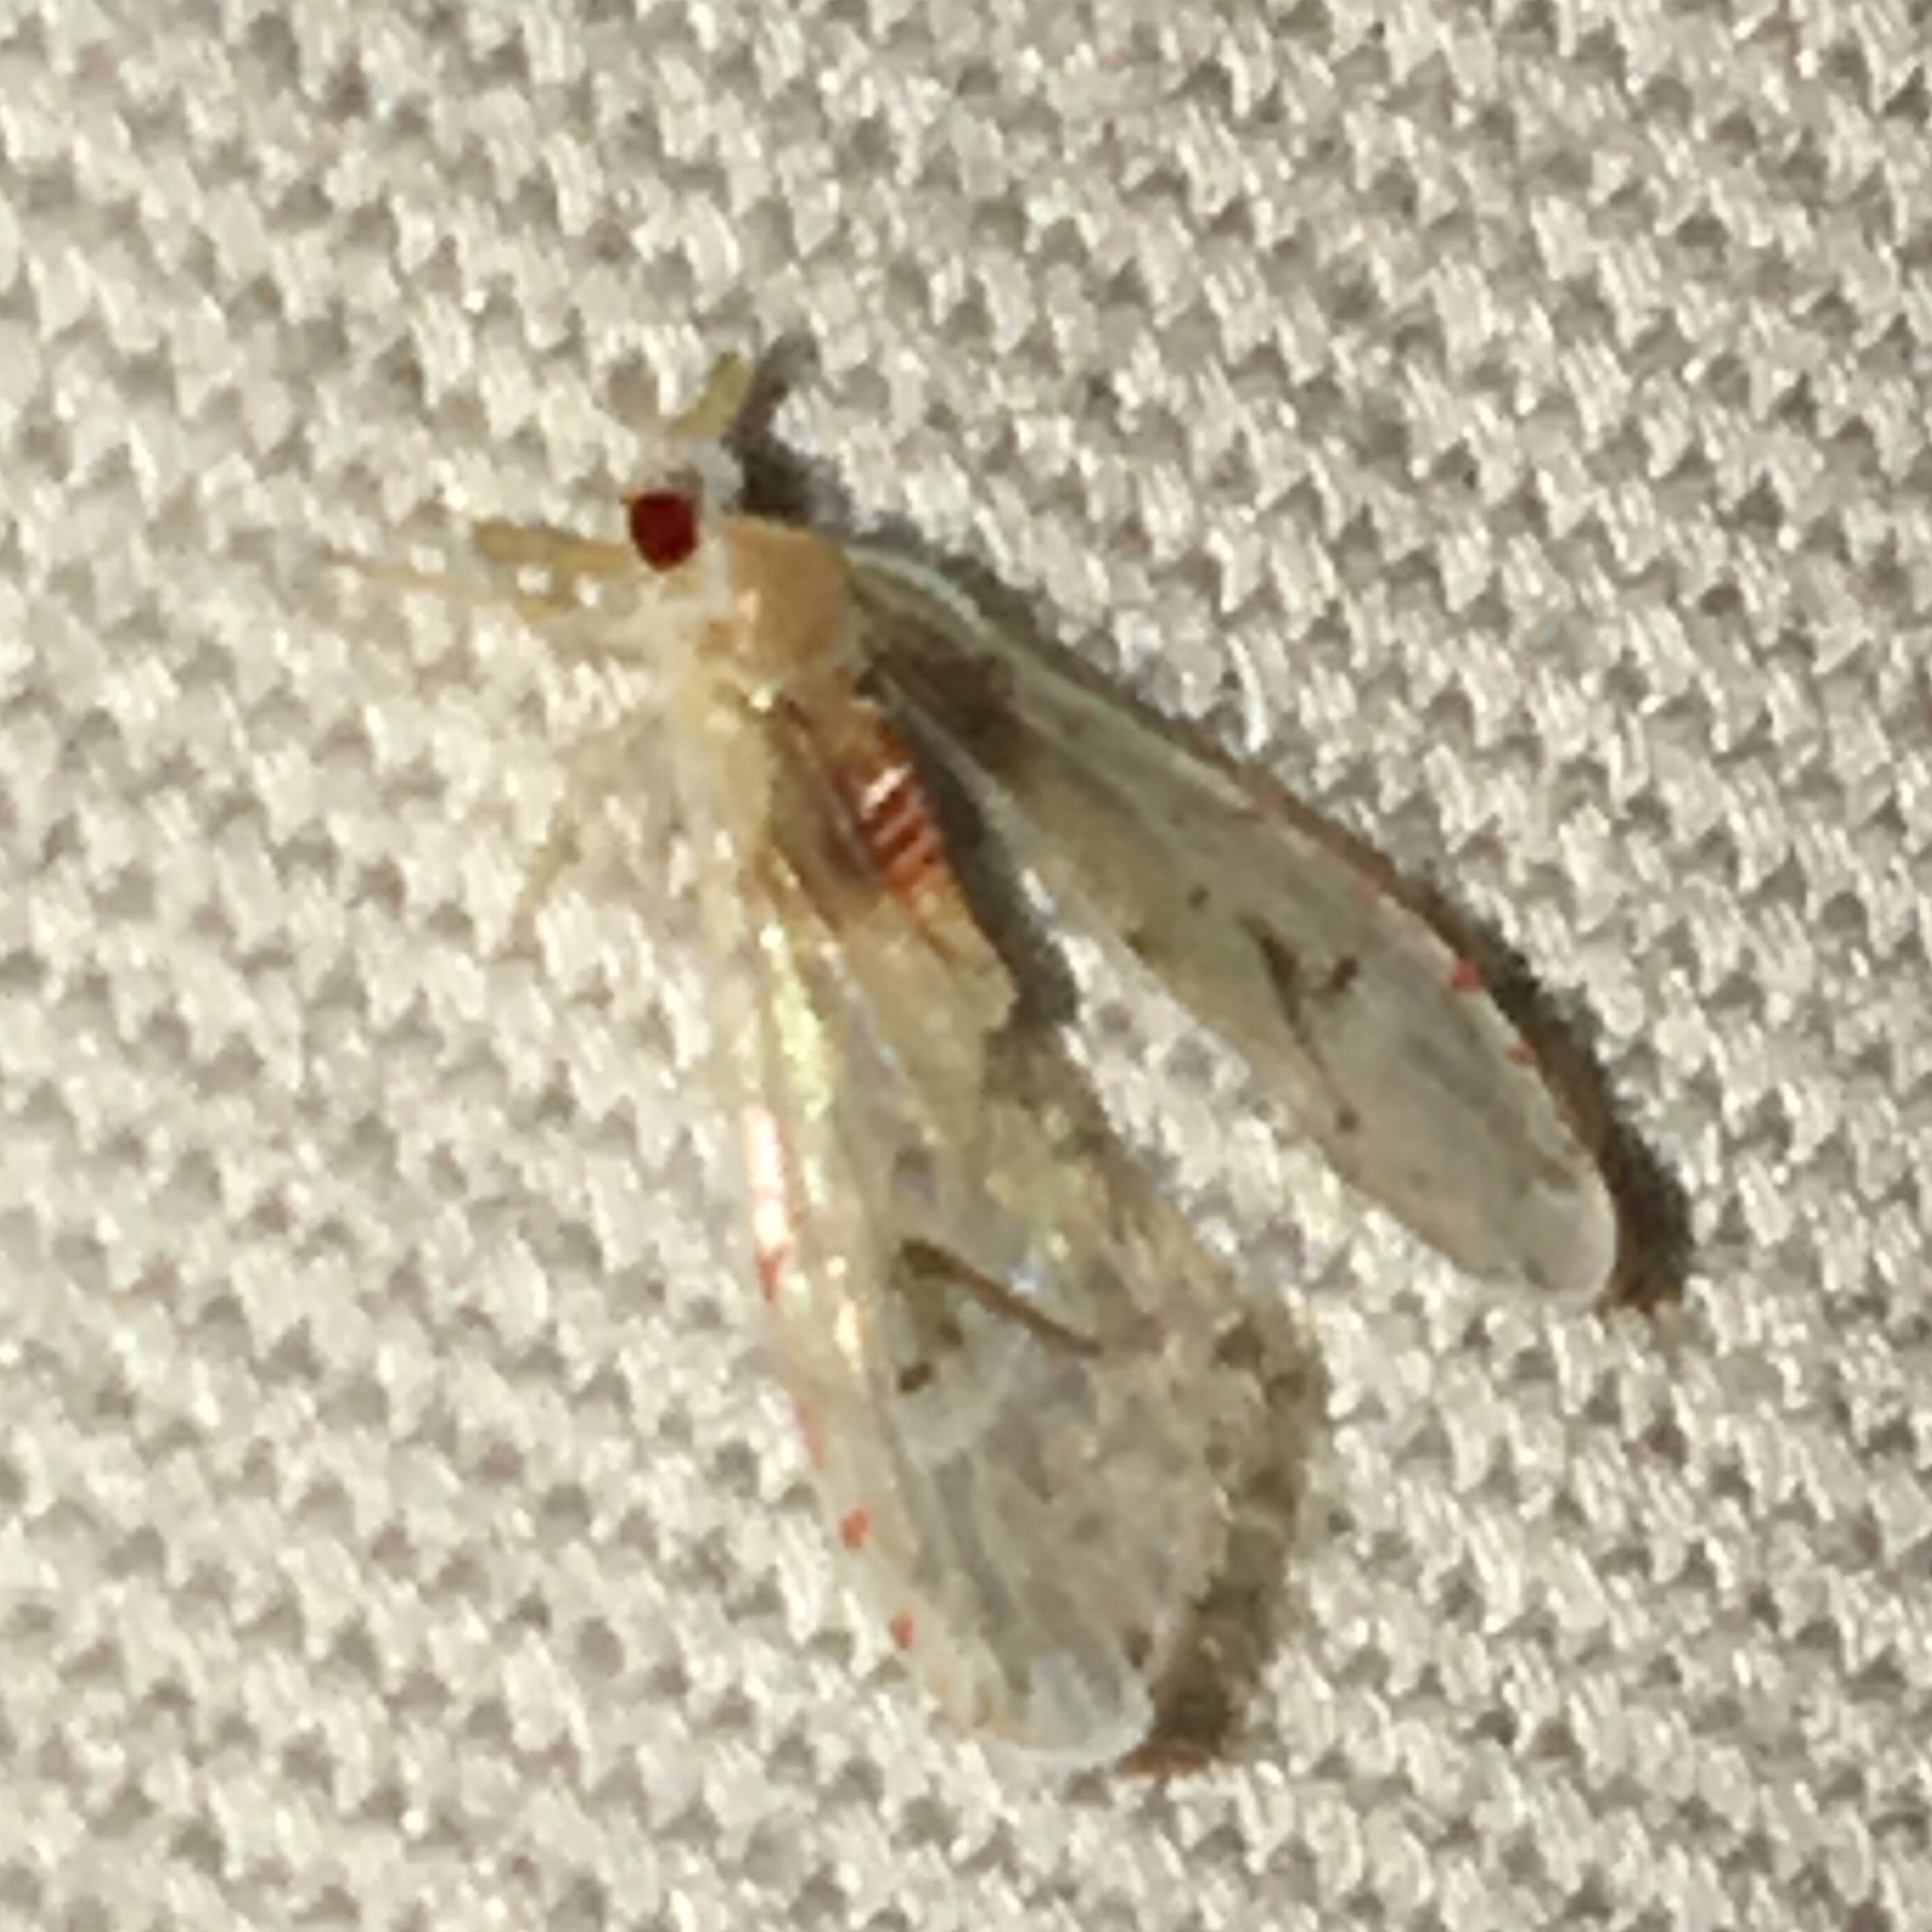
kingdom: Animalia
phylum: Arthropoda
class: Insecta
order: Hemiptera
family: Derbidae
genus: Anotia
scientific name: Anotia burnetii
